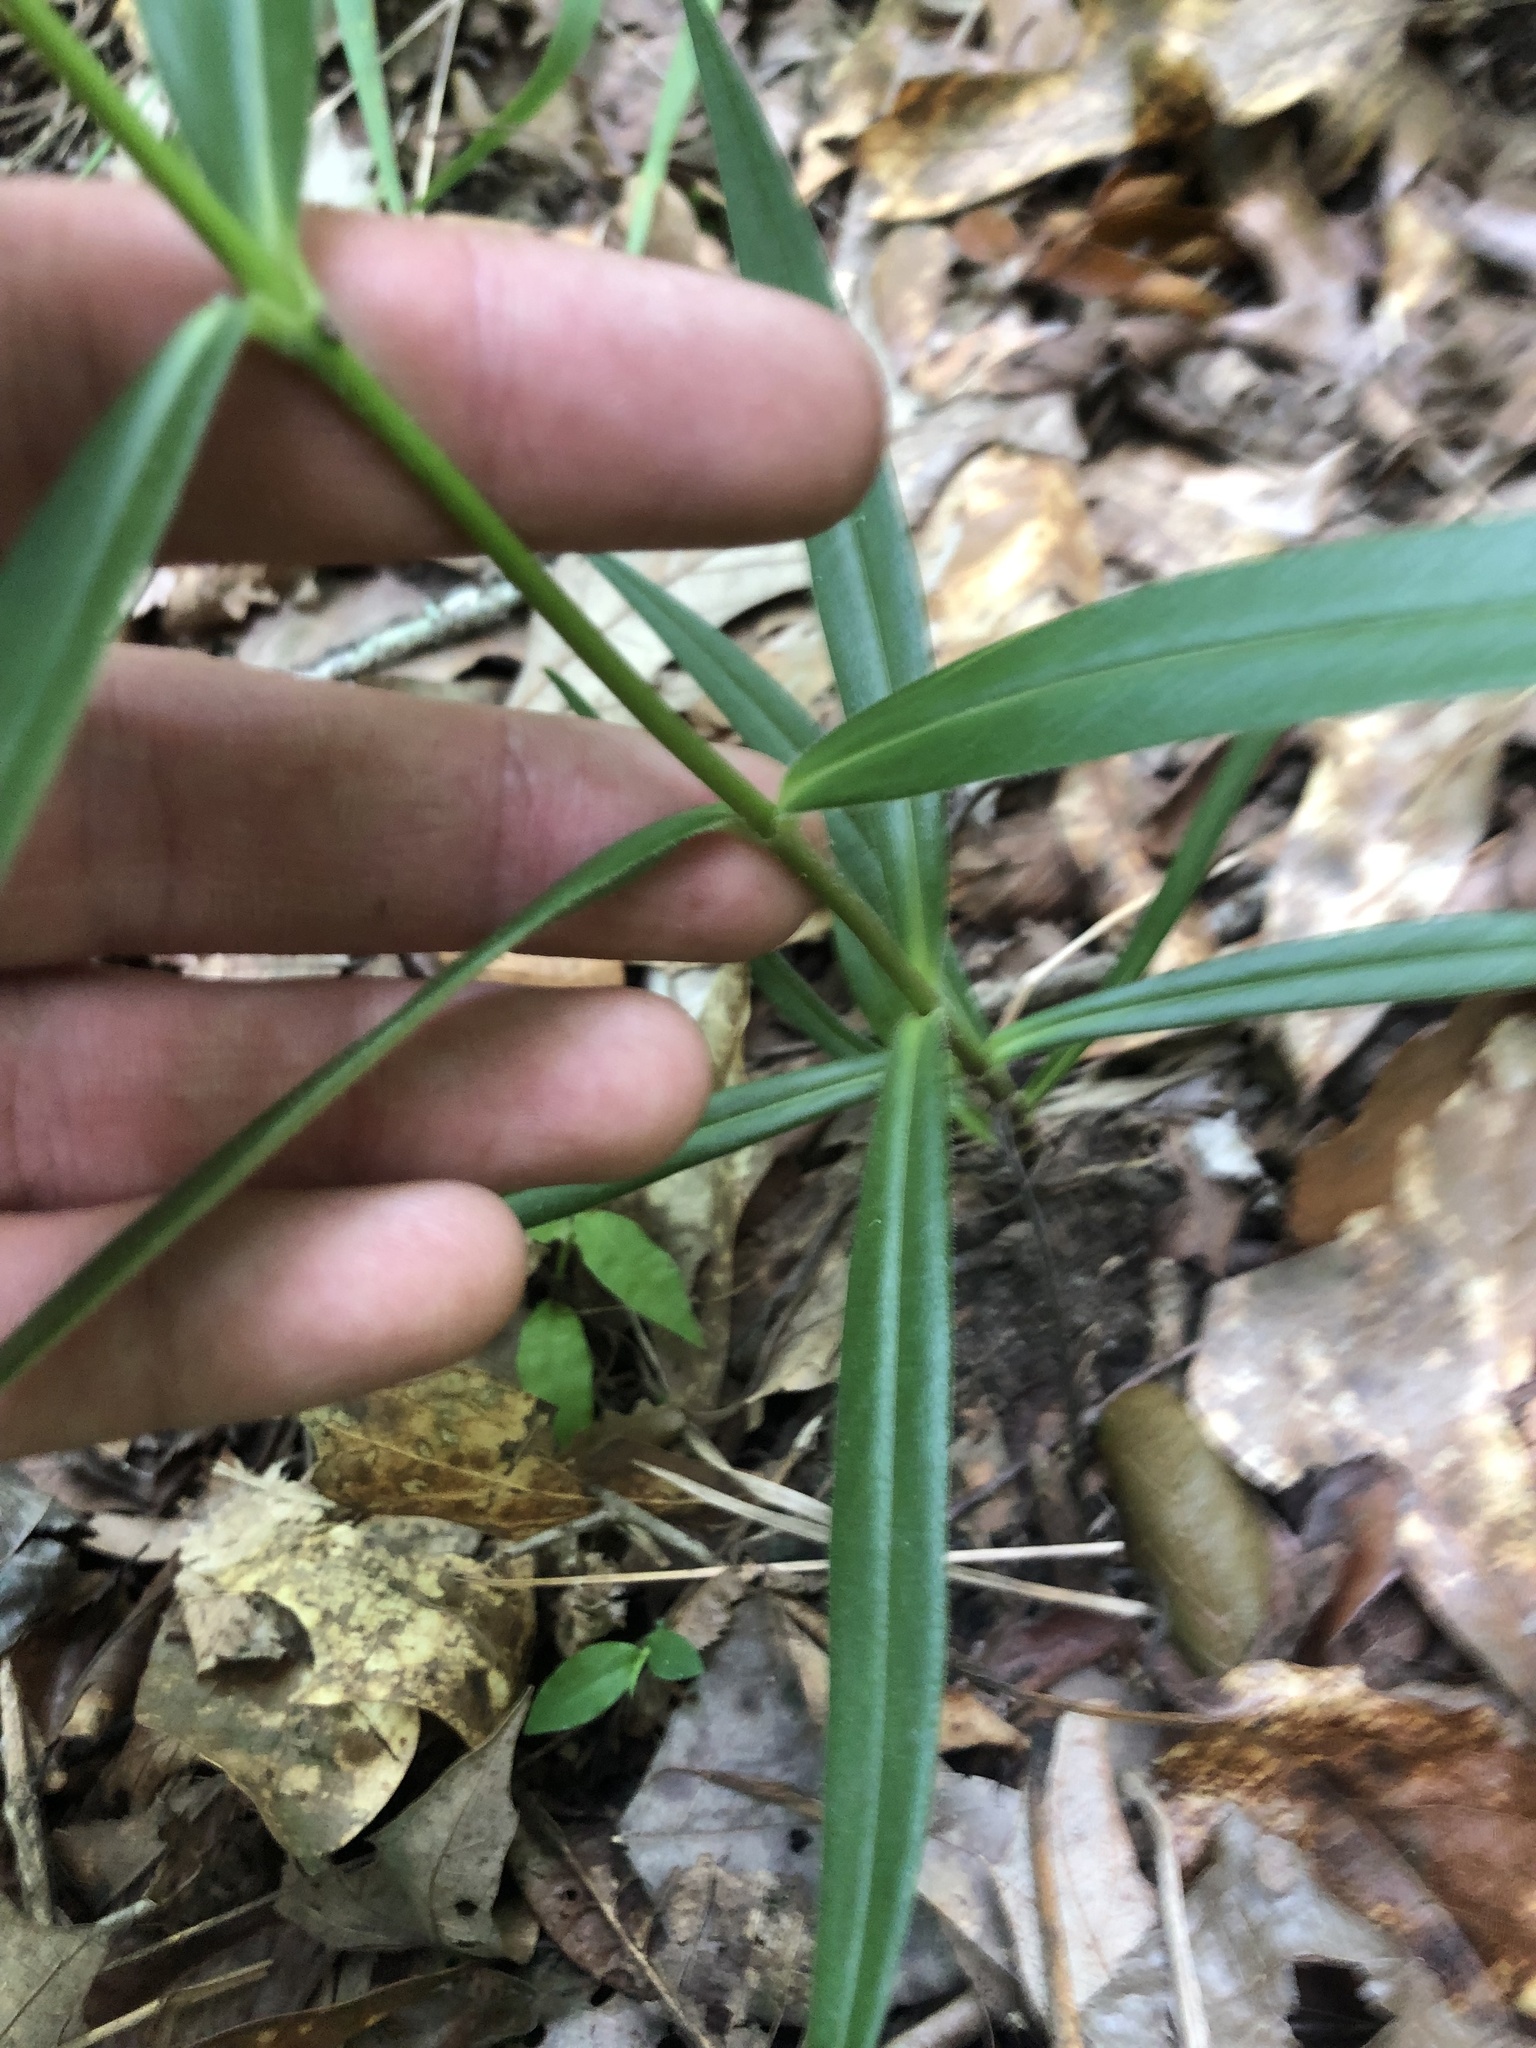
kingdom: Plantae
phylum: Tracheophyta
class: Magnoliopsida
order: Ericales
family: Polemoniaceae
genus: Phlox
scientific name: Phlox carolina
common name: Thick-leaf phlox
